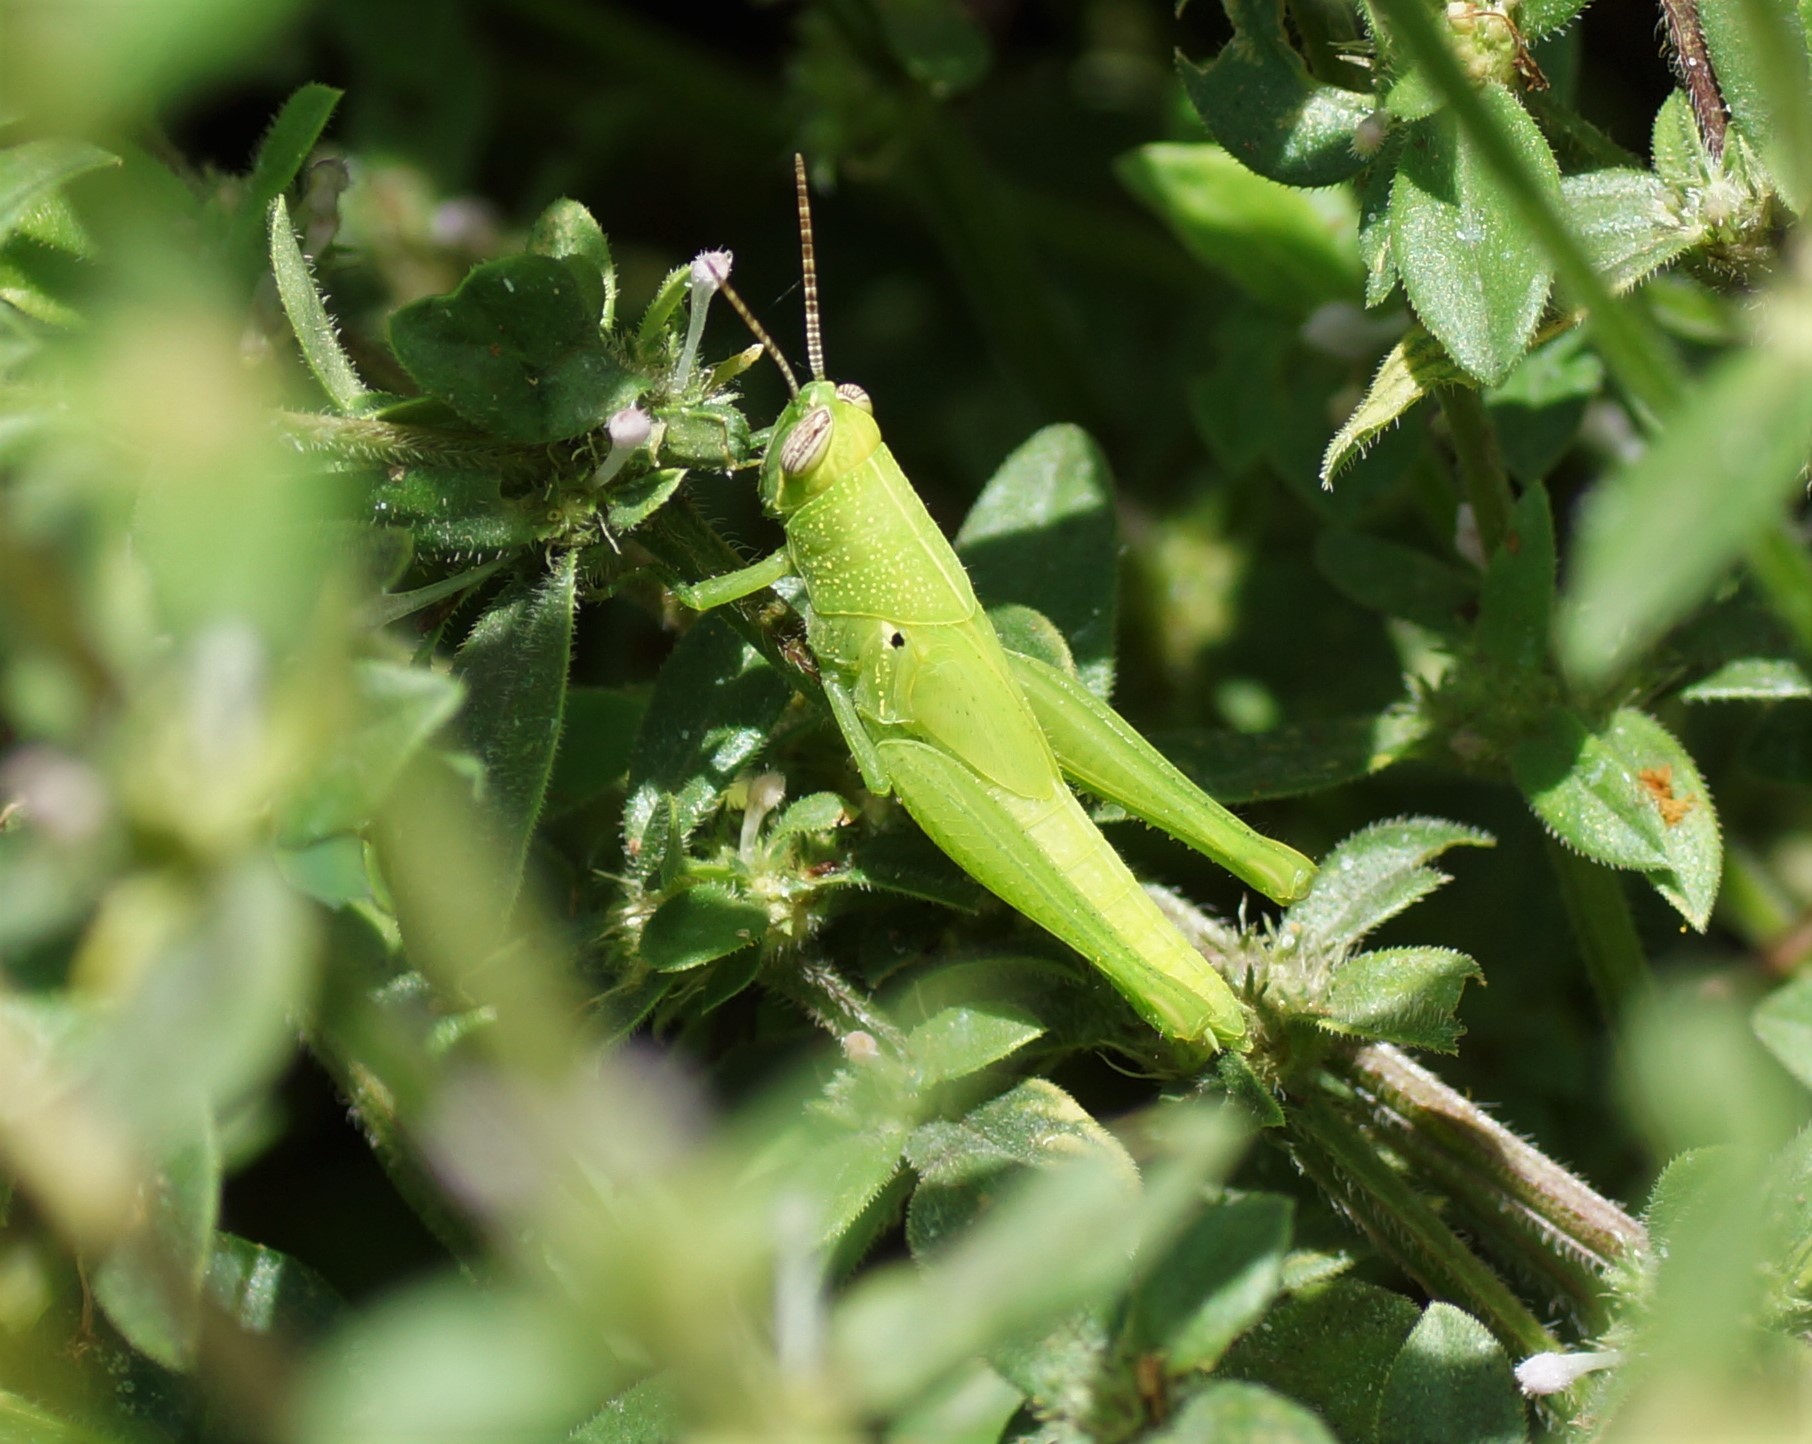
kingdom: Animalia
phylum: Arthropoda
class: Insecta
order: Orthoptera
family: Acrididae
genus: Stenocatantops
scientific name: Stenocatantops angustifrons
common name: Common tropical sharptail
